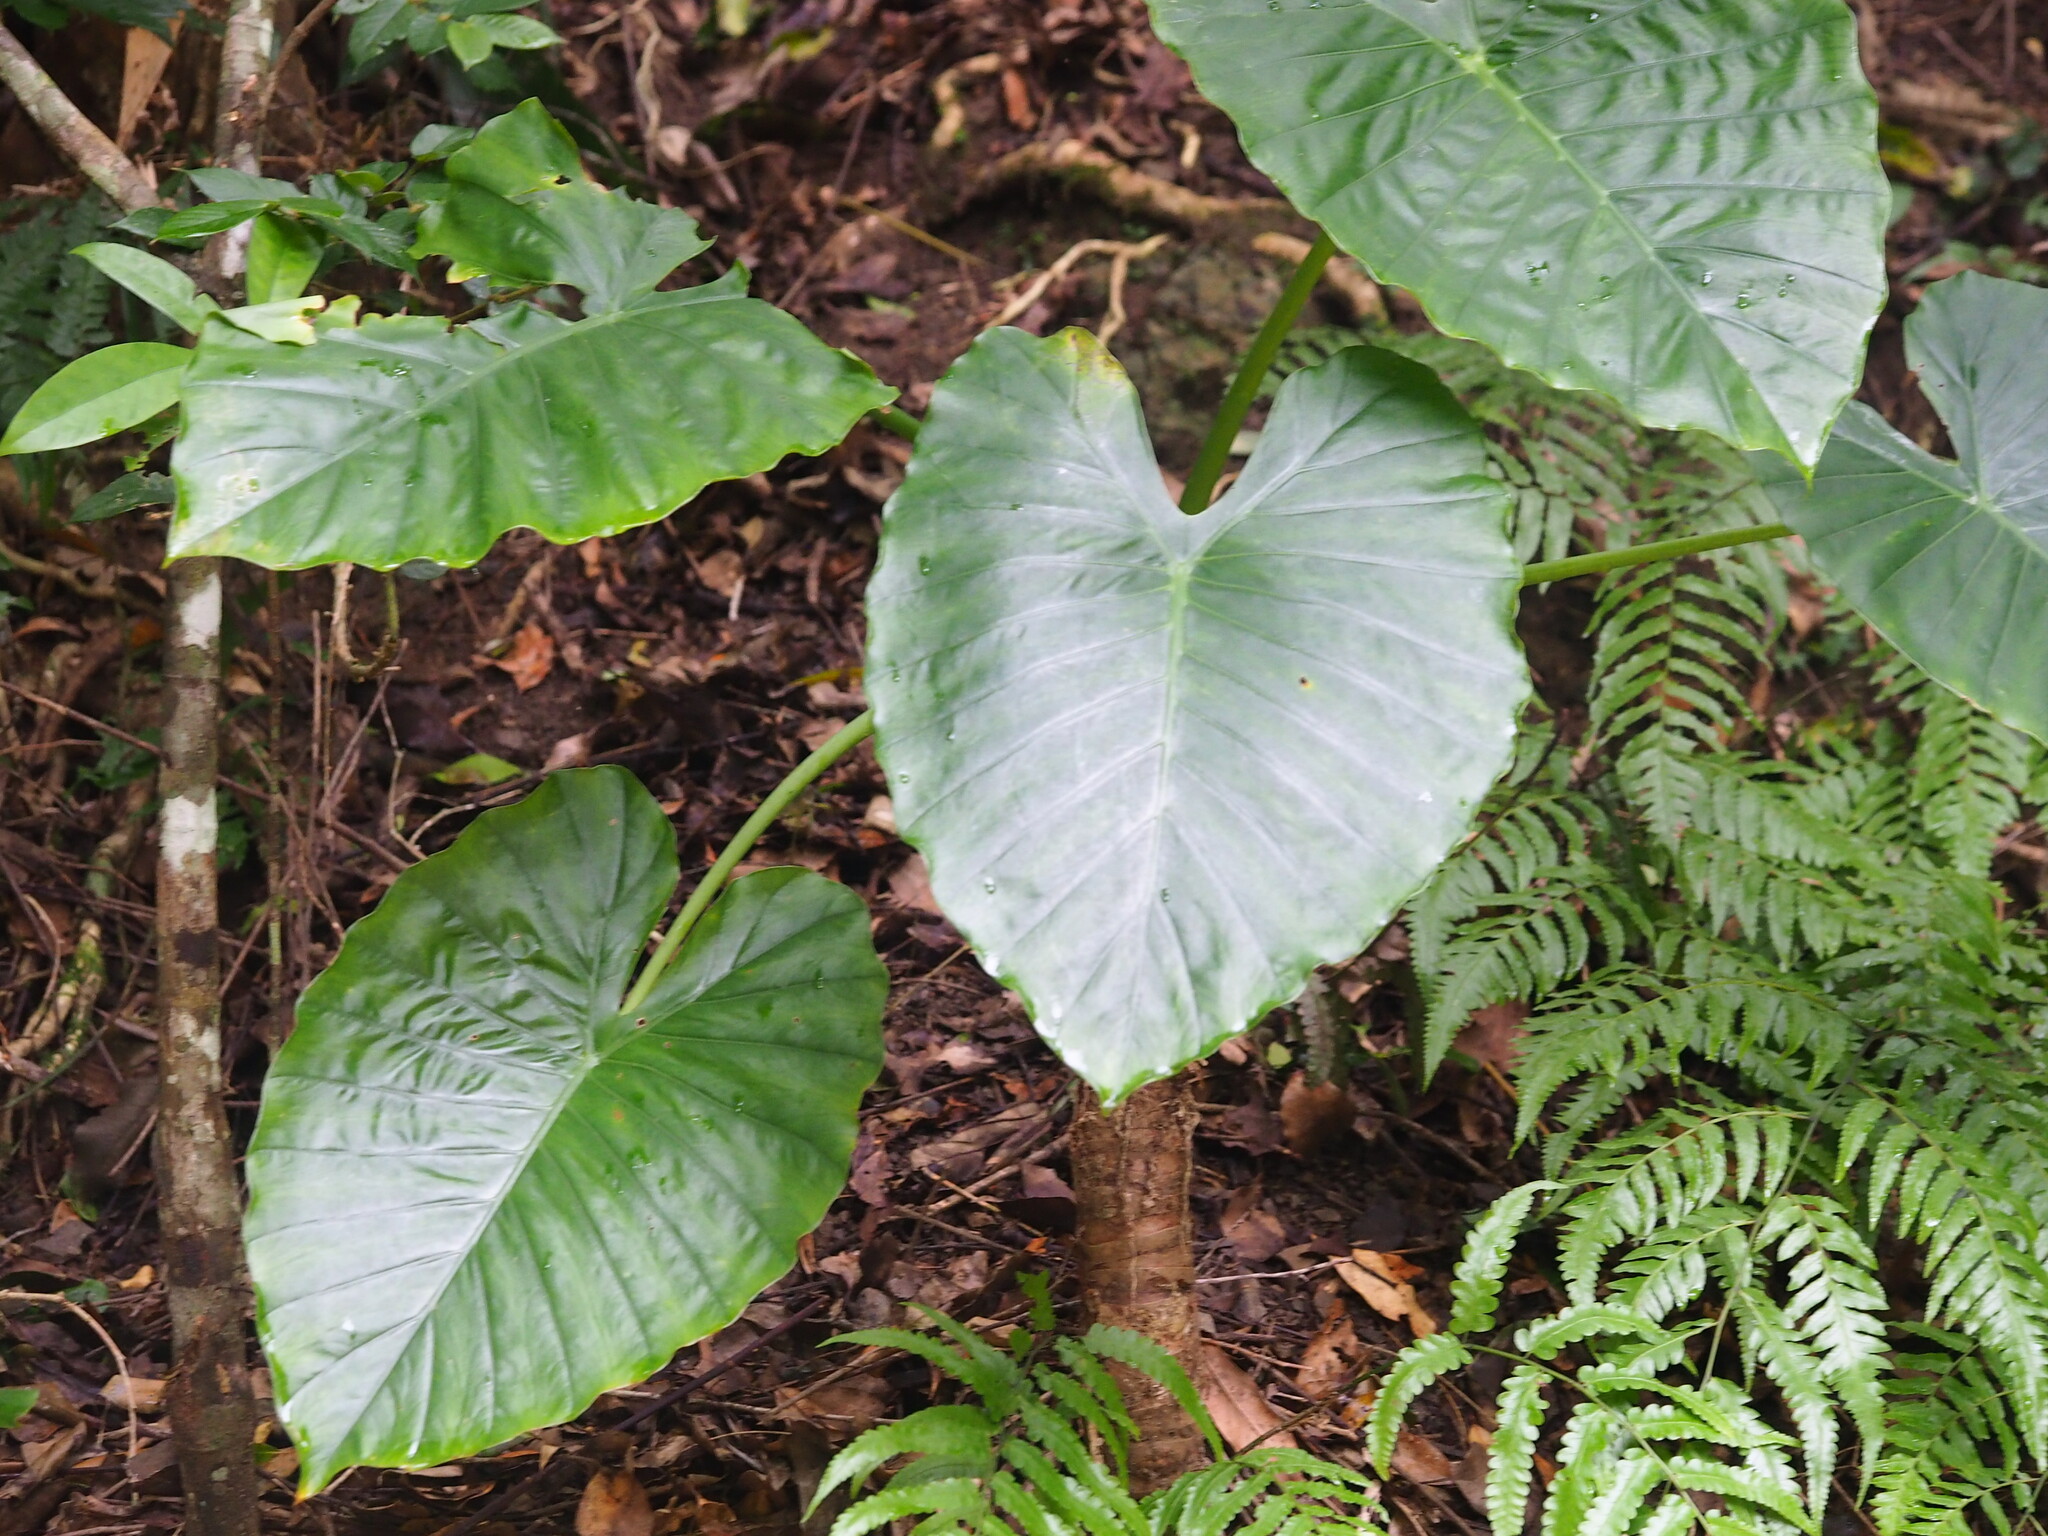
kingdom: Plantae
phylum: Tracheophyta
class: Liliopsida
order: Alismatales
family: Araceae
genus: Alocasia
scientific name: Alocasia odora
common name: Asian taro
